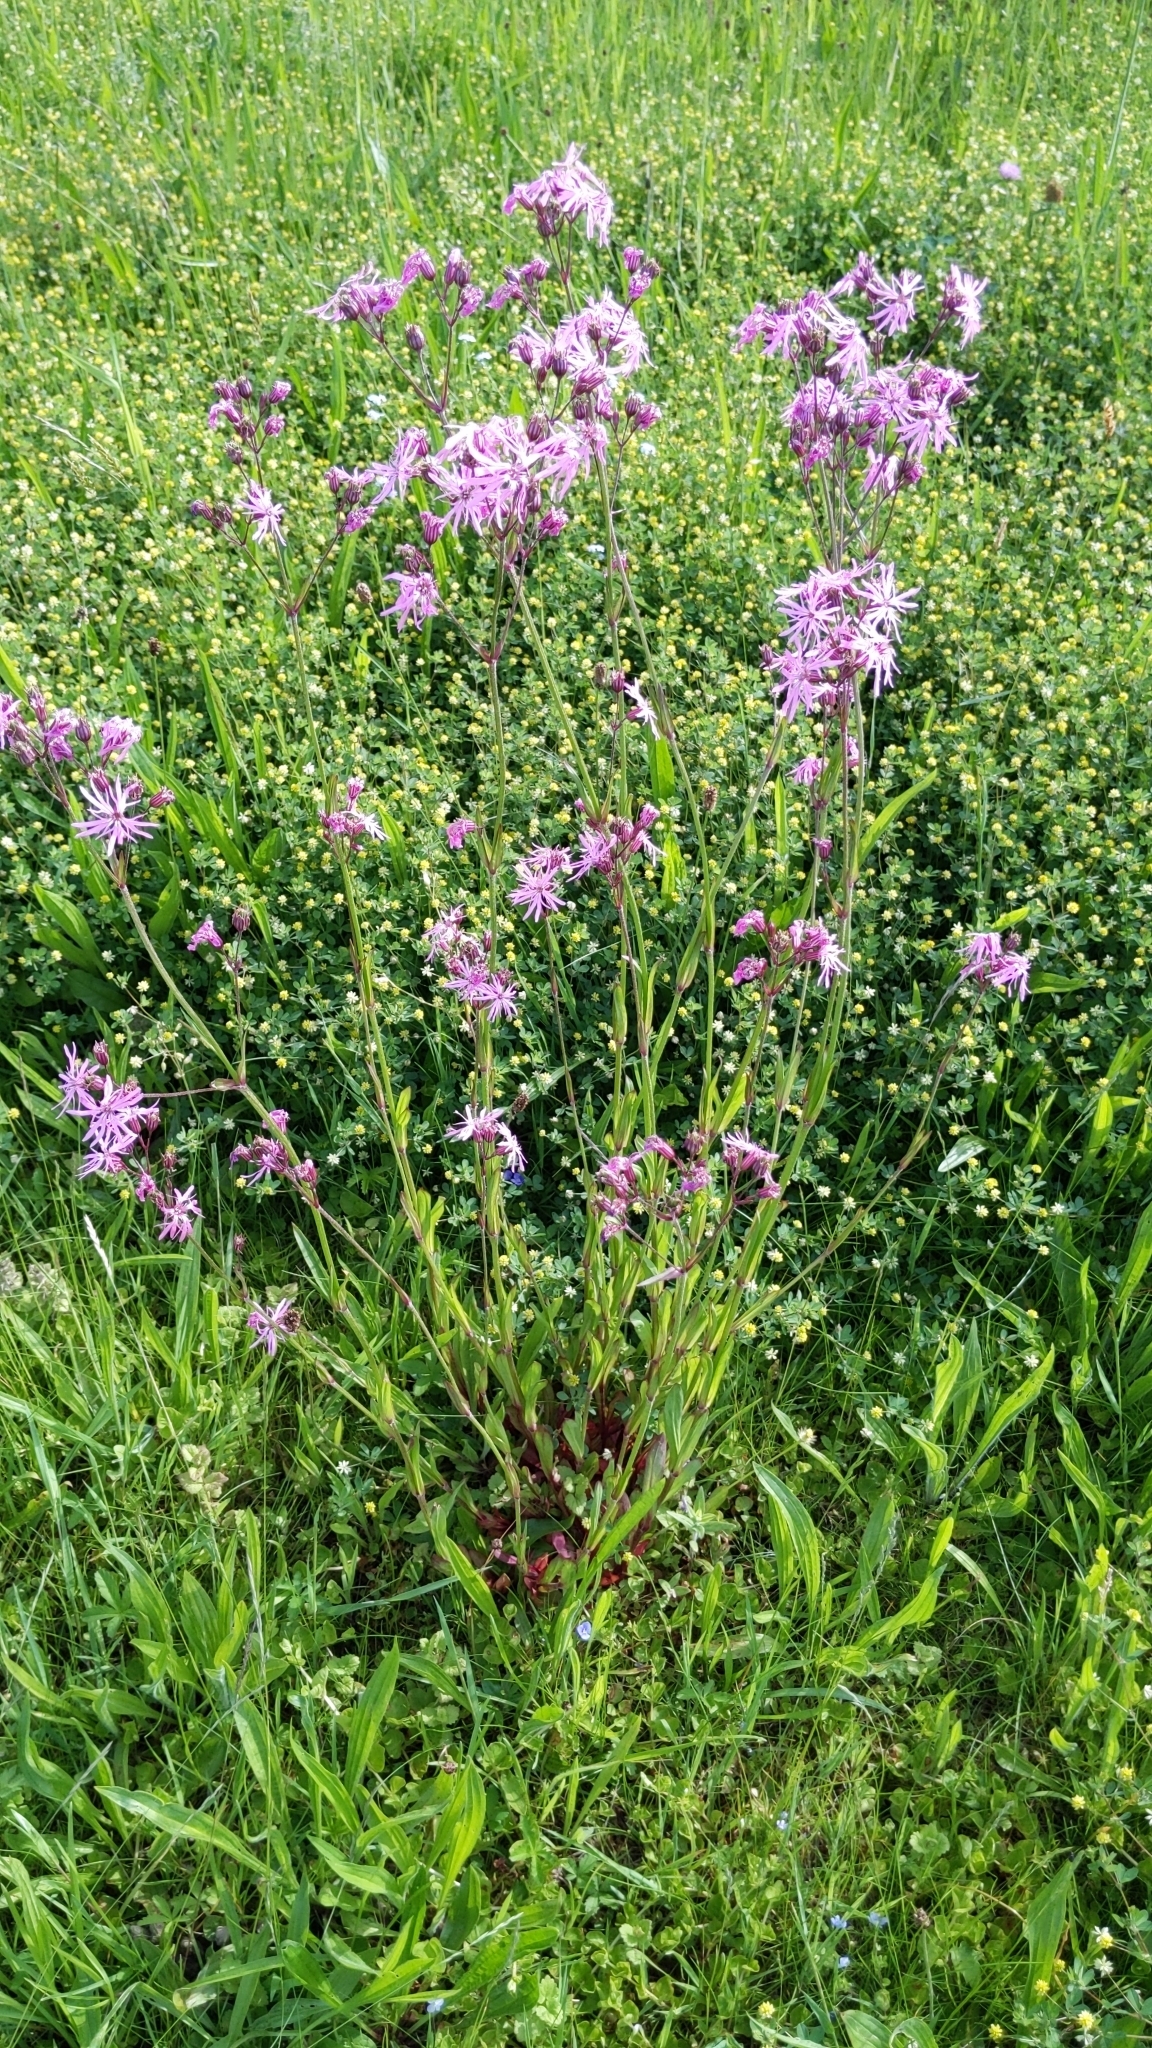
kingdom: Plantae
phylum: Tracheophyta
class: Magnoliopsida
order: Caryophyllales
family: Caryophyllaceae
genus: Silene
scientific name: Silene flos-cuculi
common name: Ragged-robin
